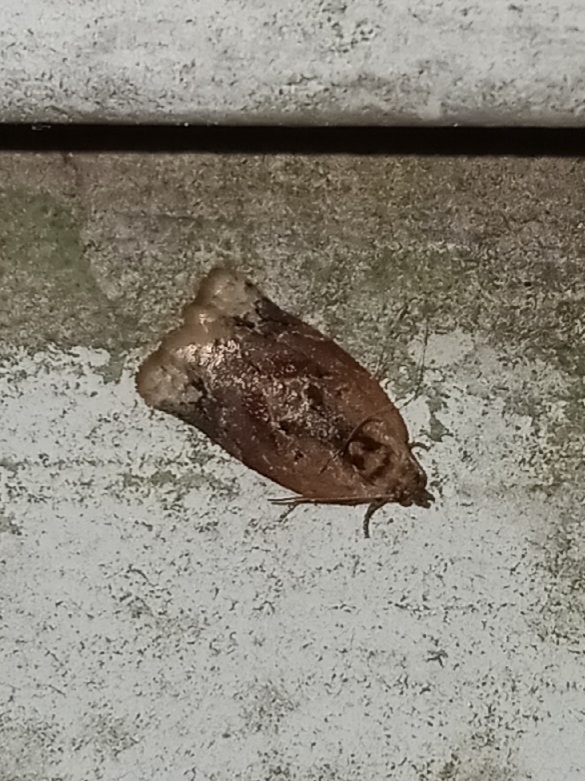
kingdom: Animalia
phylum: Arthropoda
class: Insecta
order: Lepidoptera
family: Tortricidae
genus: Argyrotaenia
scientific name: Argyrotaenia velutinana
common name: Red-banded leafroller moth
